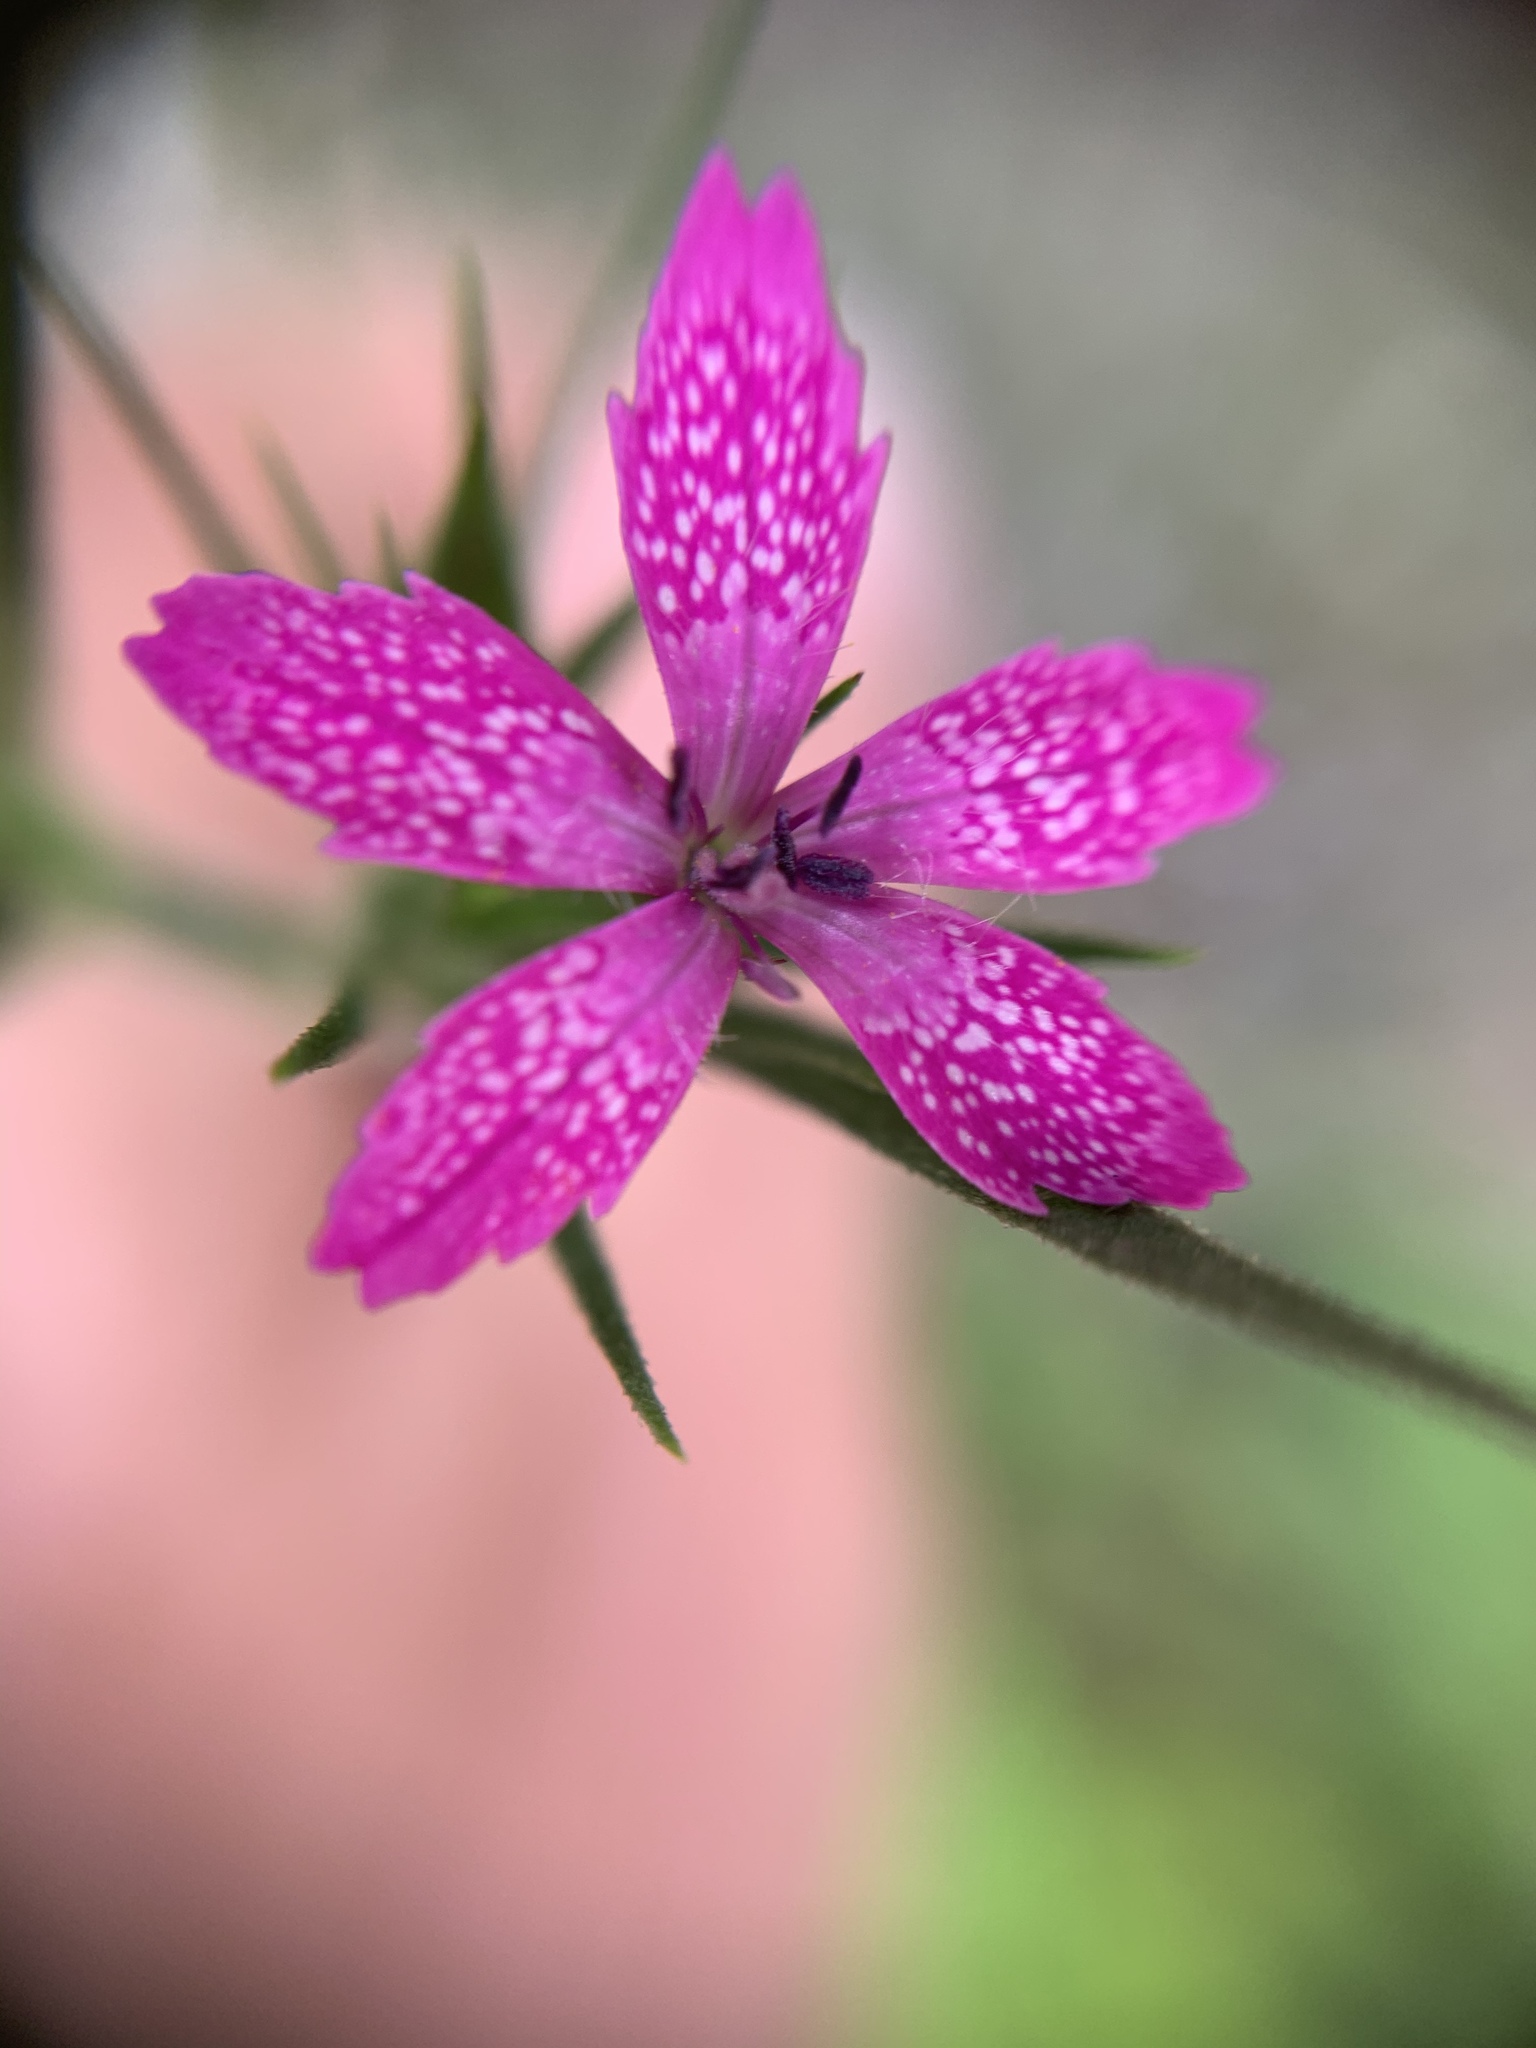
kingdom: Plantae
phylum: Tracheophyta
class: Magnoliopsida
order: Caryophyllales
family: Caryophyllaceae
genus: Dianthus
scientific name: Dianthus armeria
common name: Deptford pink
